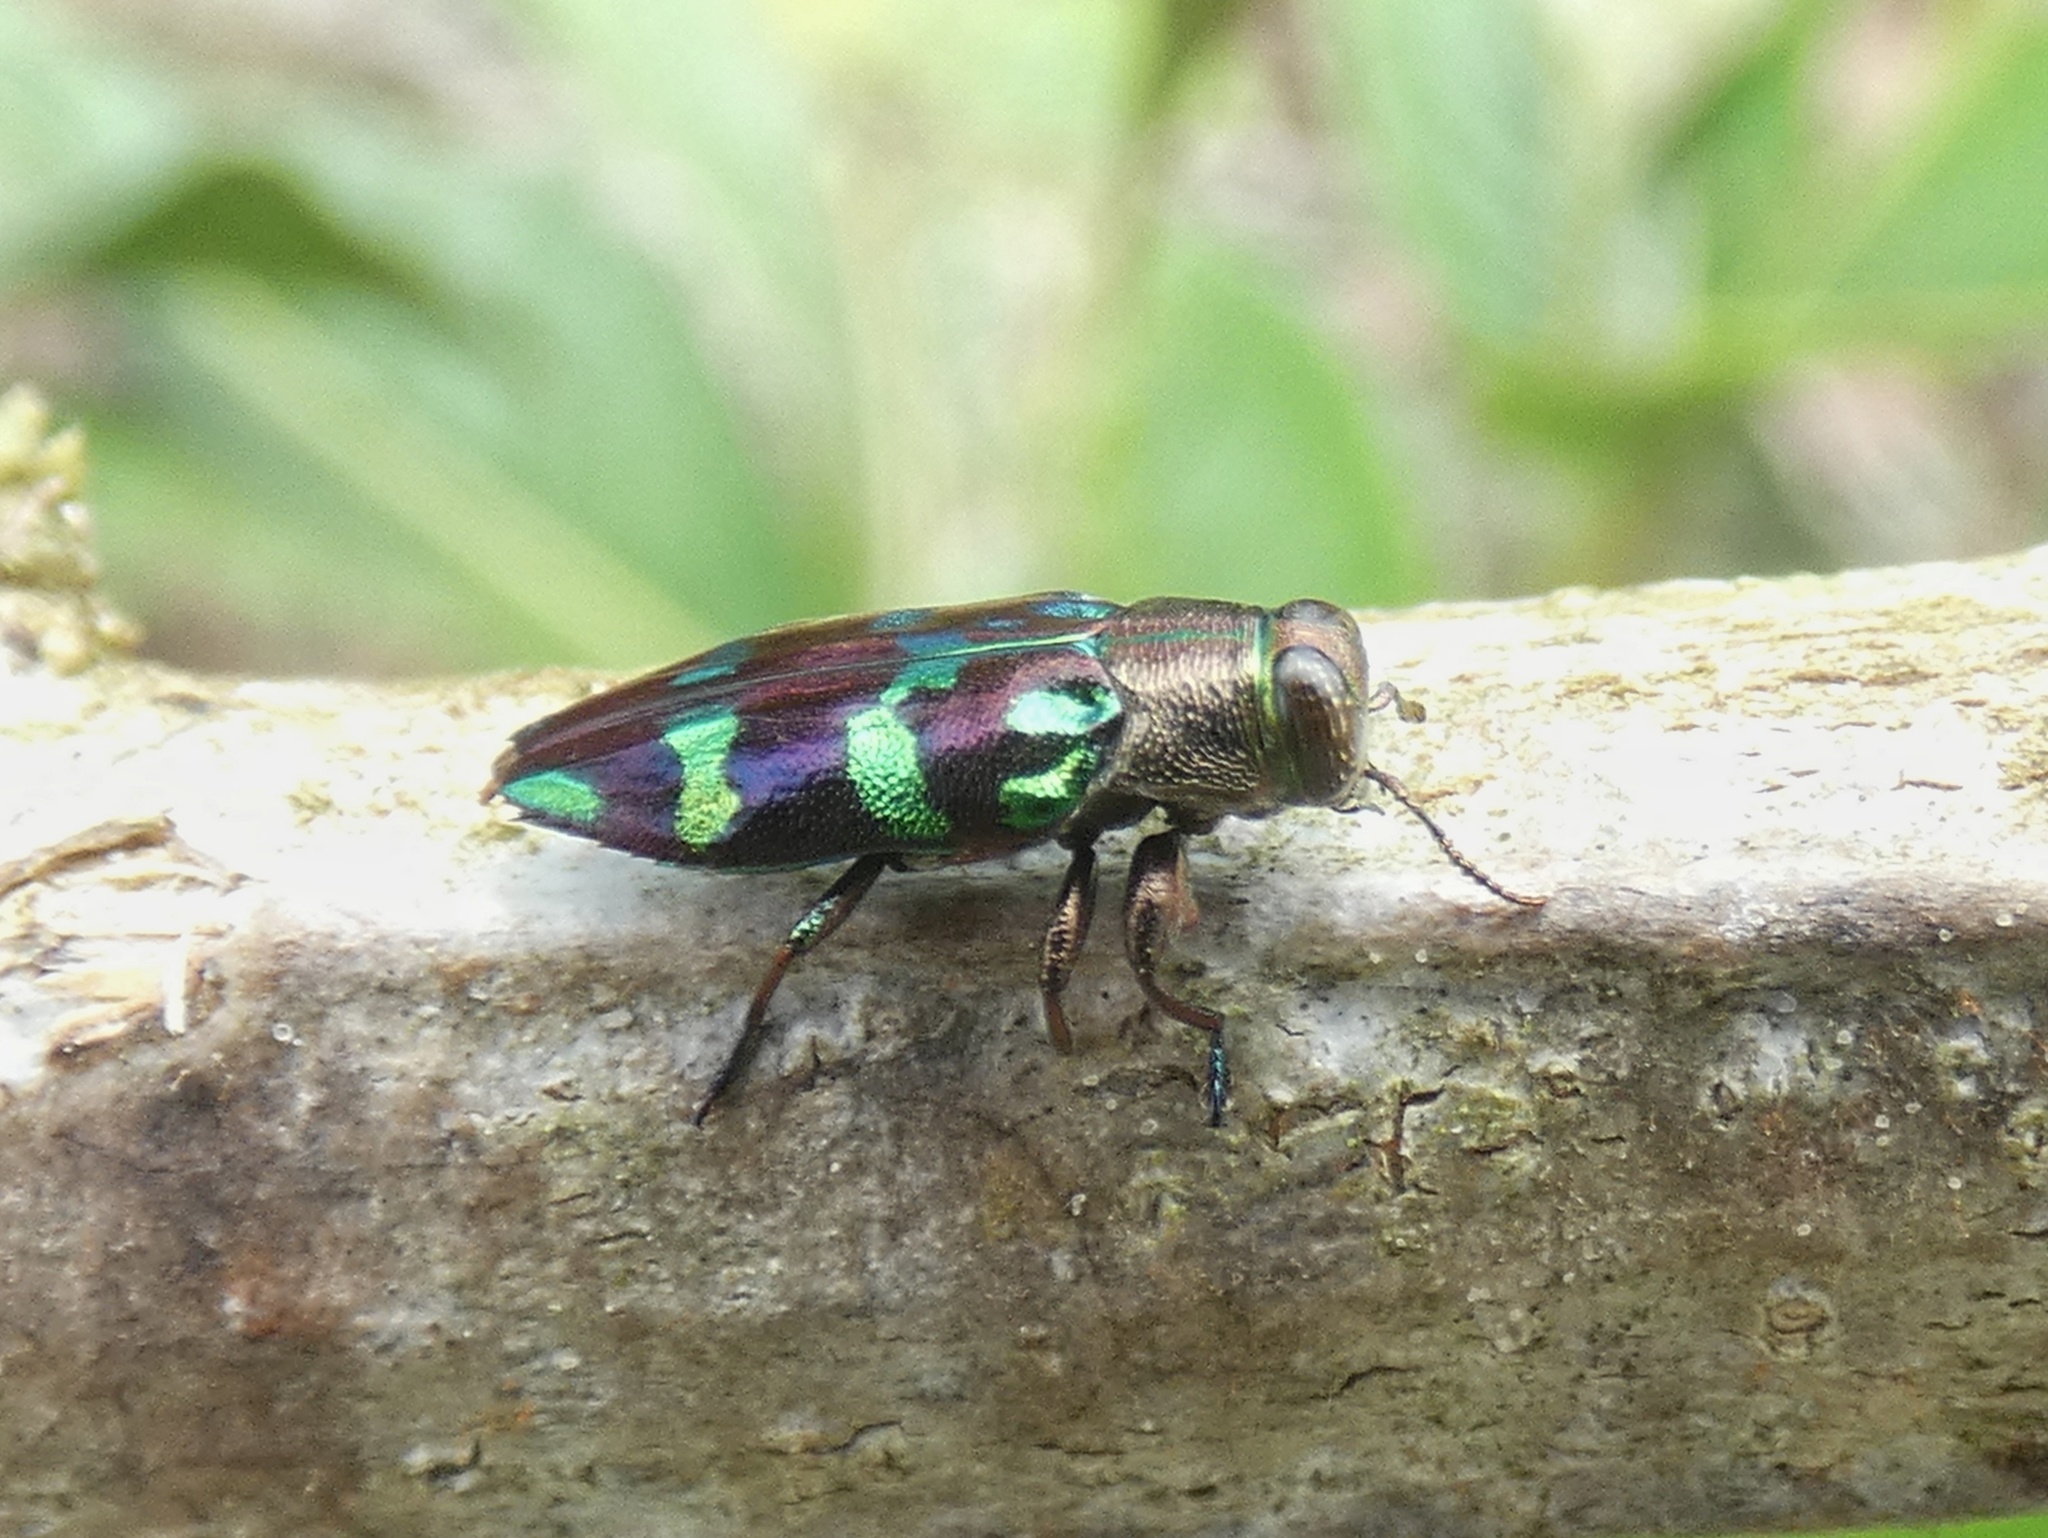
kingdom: Animalia
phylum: Arthropoda
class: Insecta
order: Coleoptera
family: Buprestidae
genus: Chrysobothris
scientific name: Chrysobothris viridiimpressa
